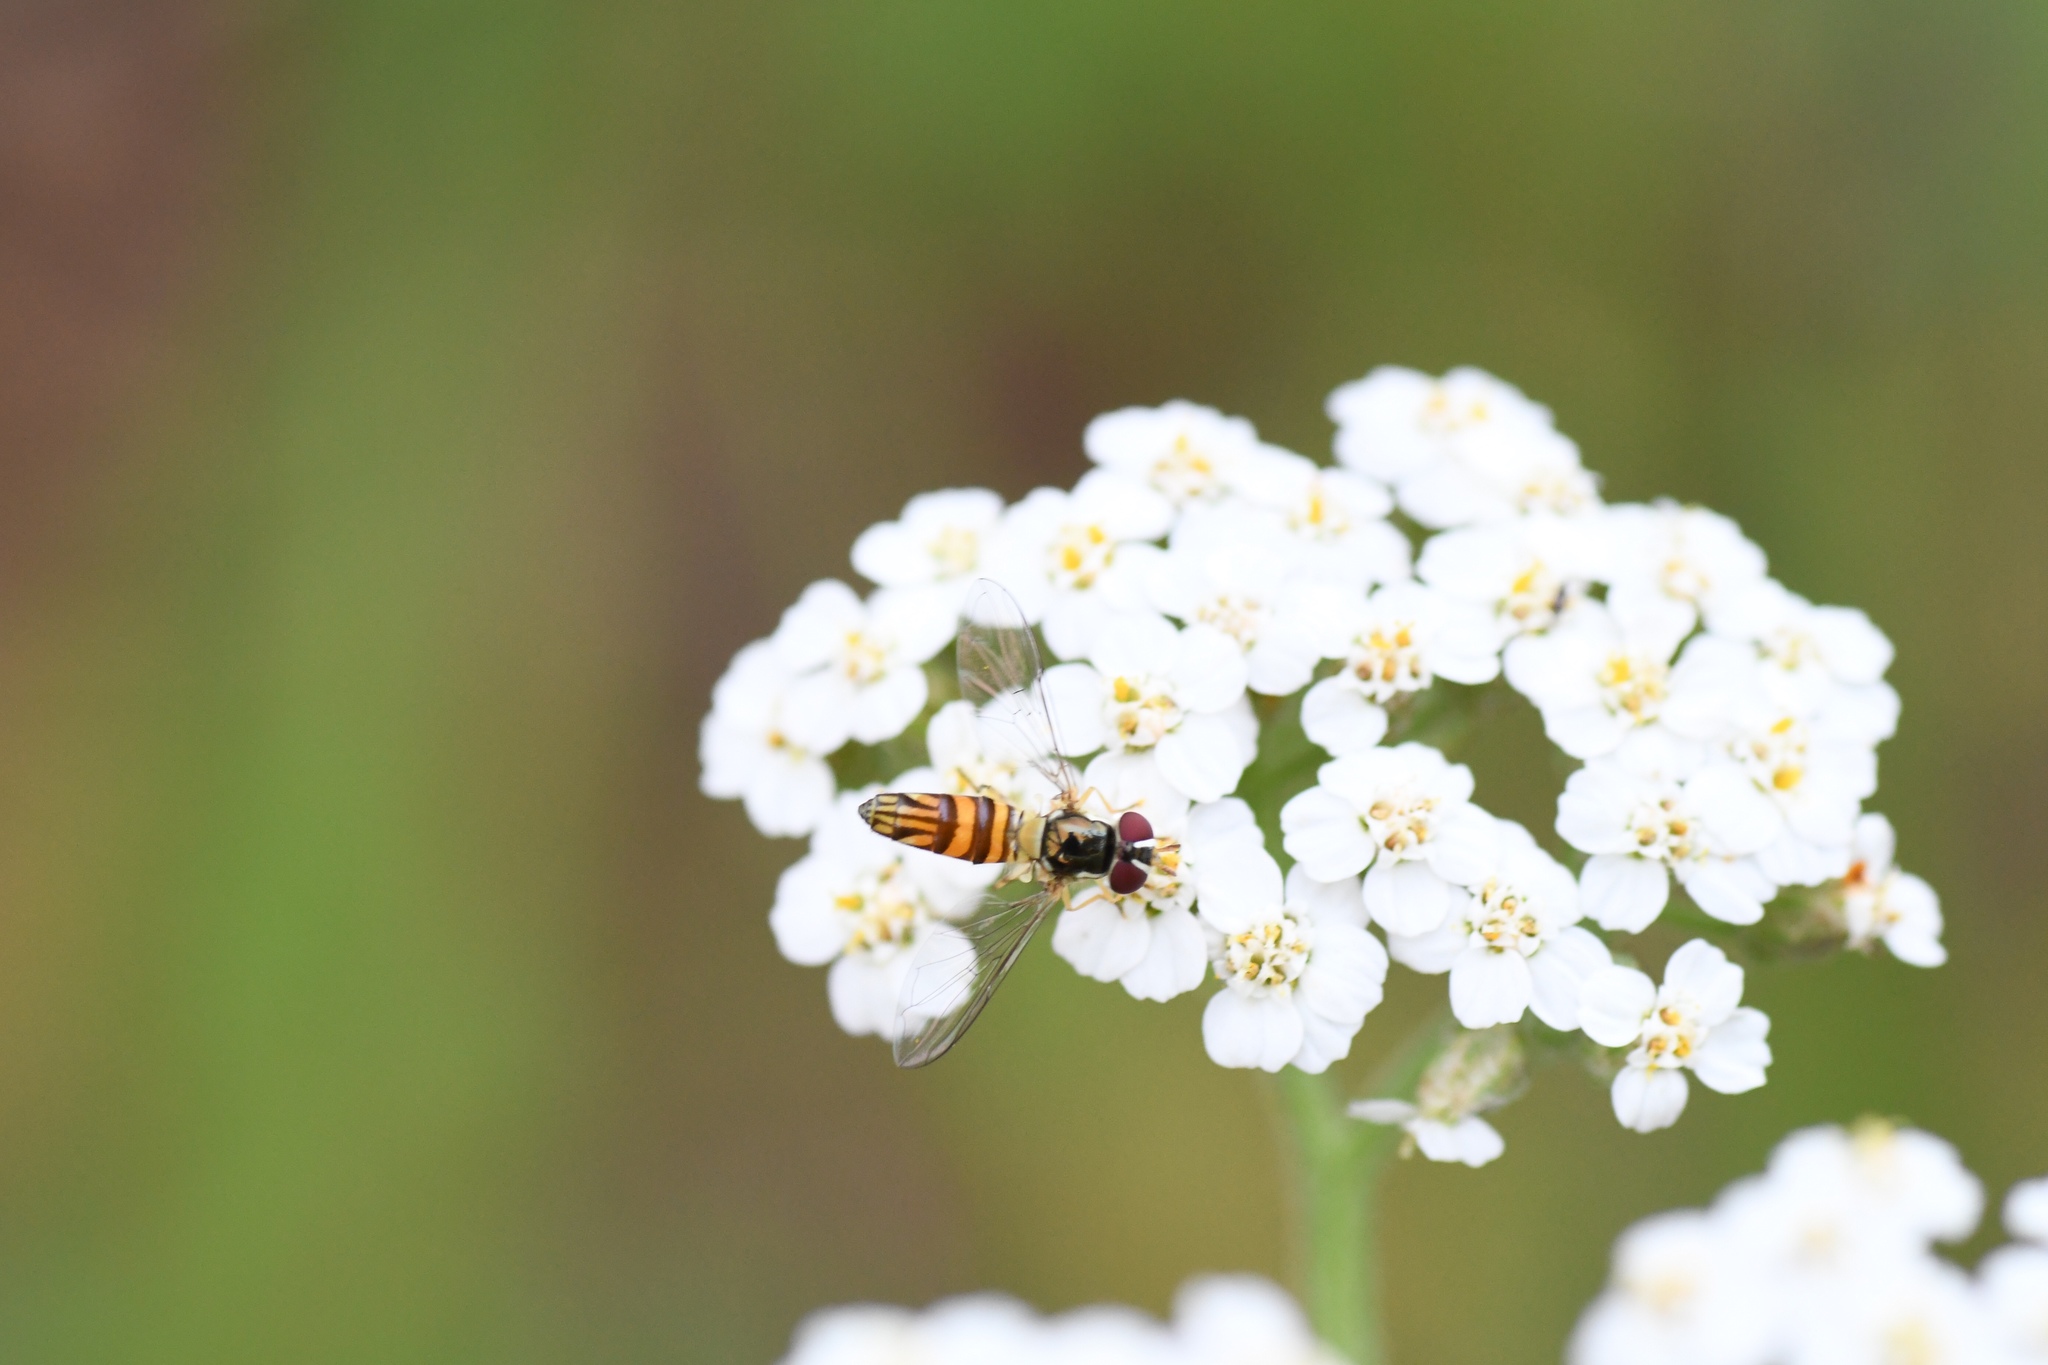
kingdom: Animalia
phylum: Arthropoda
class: Insecta
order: Diptera
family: Syrphidae
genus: Allograpta
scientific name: Allograpta obliqua
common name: Common oblique syrphid
